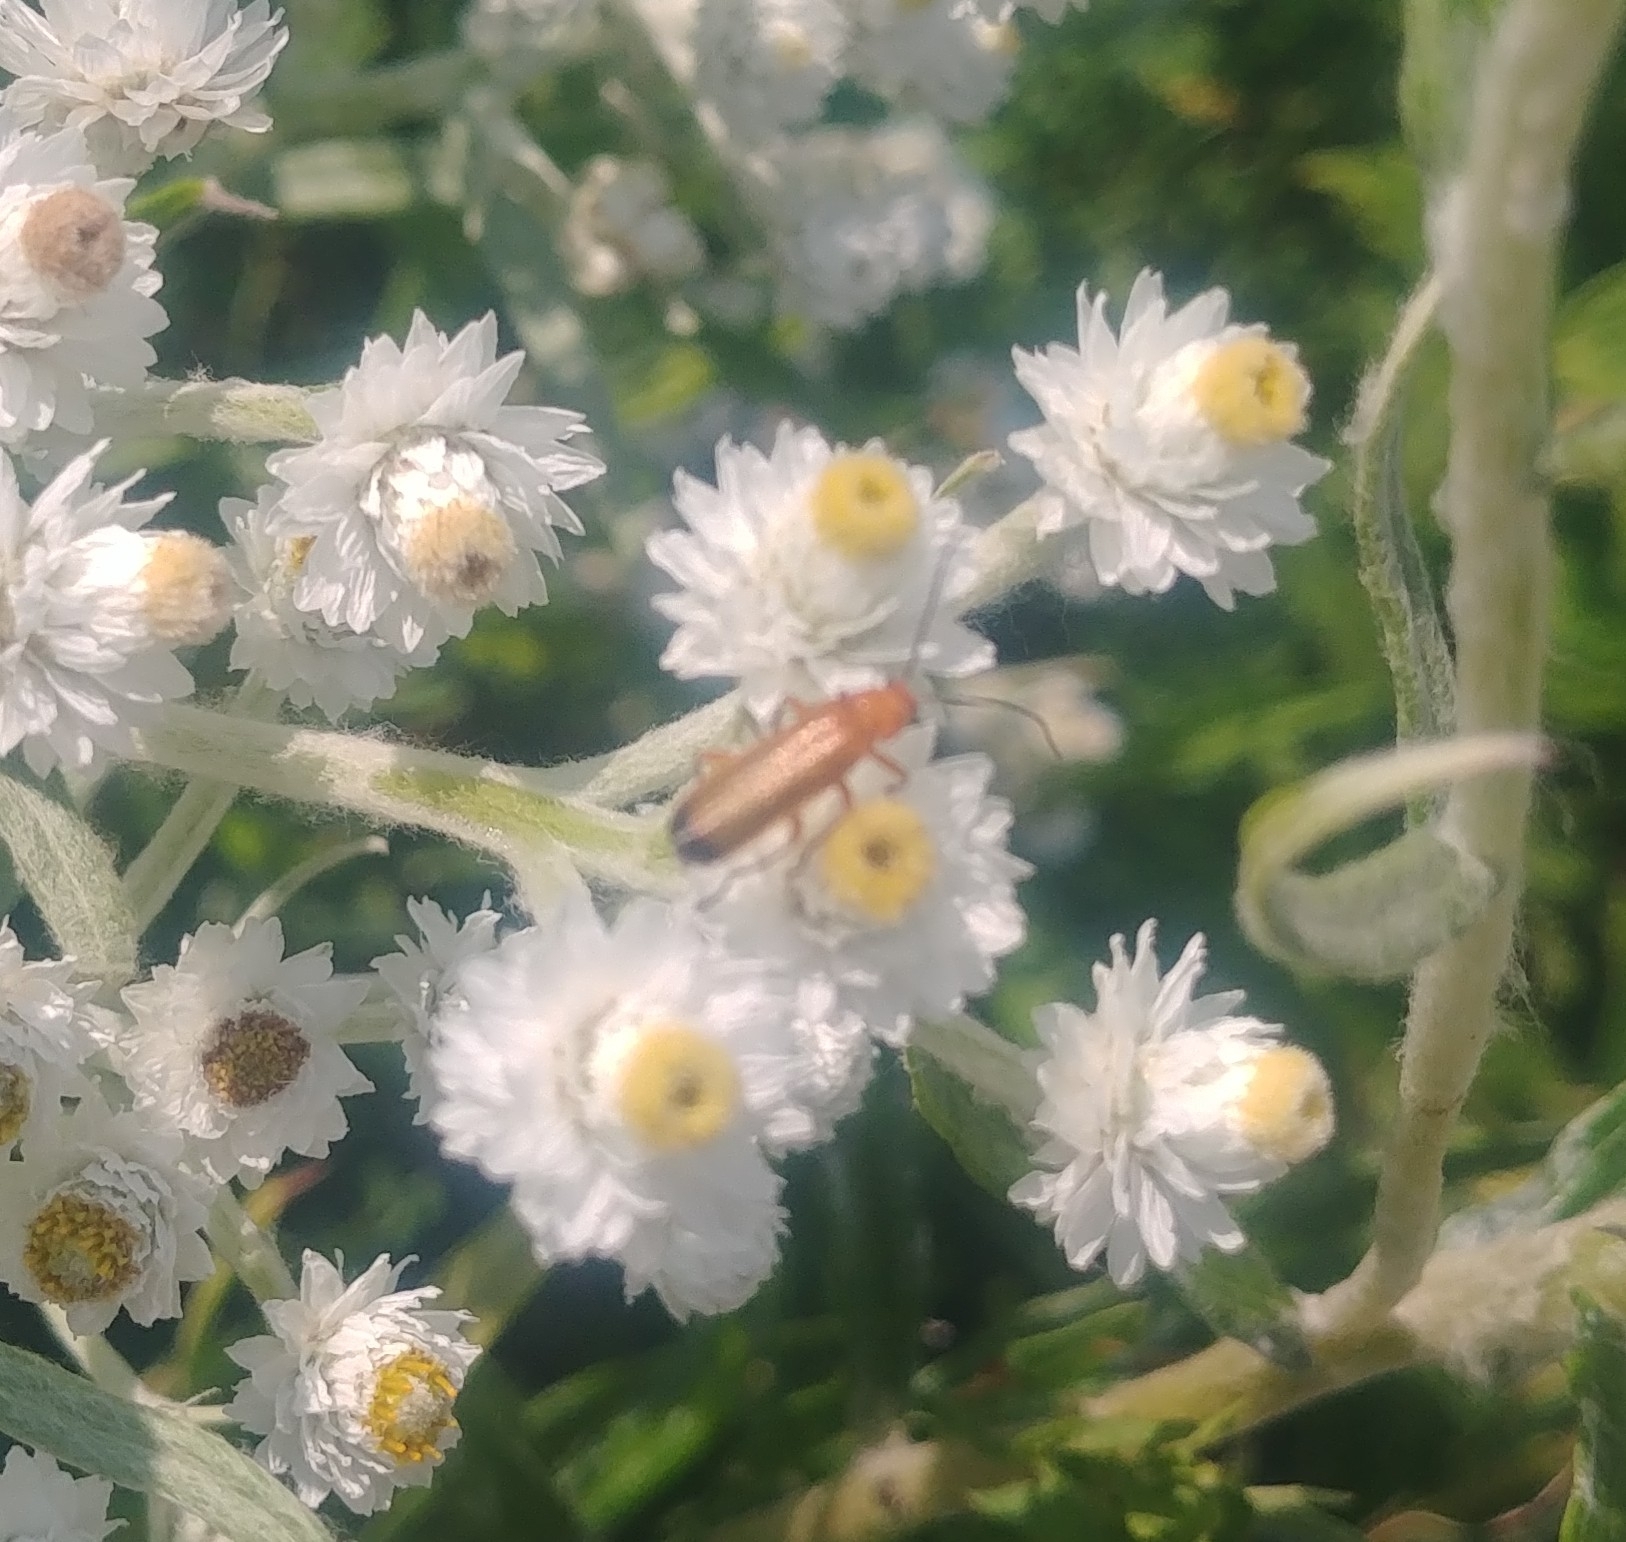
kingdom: Animalia
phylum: Arthropoda
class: Insecta
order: Coleoptera
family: Cantharidae
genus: Rhagonycha
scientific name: Rhagonycha fulva
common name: Common red soldier beetle
